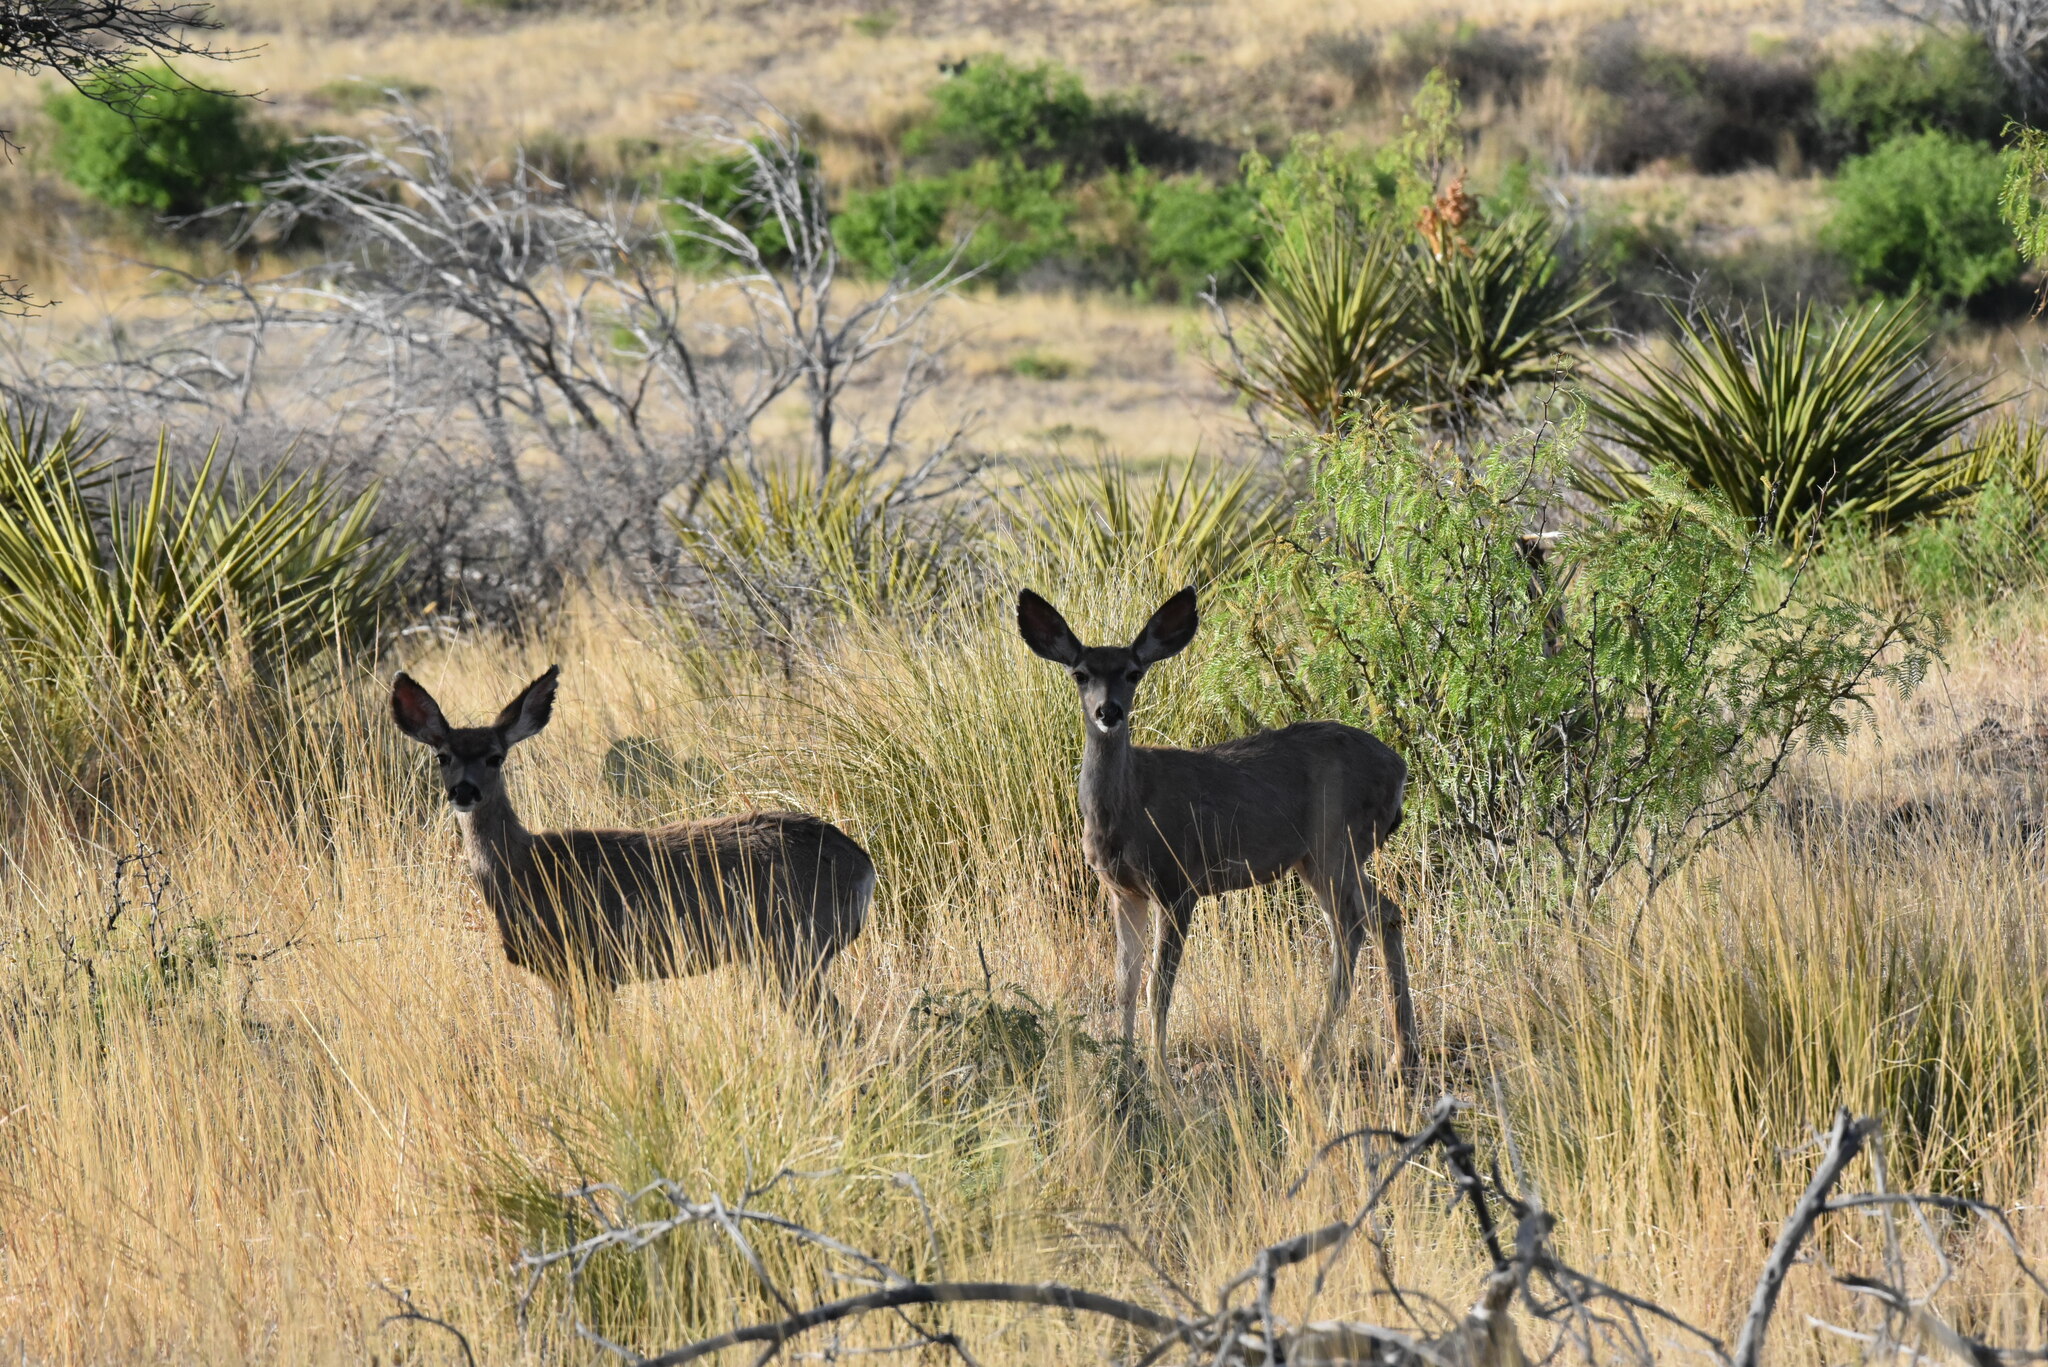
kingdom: Animalia
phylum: Chordata
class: Mammalia
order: Artiodactyla
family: Cervidae
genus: Odocoileus
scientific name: Odocoileus hemionus
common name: Mule deer
